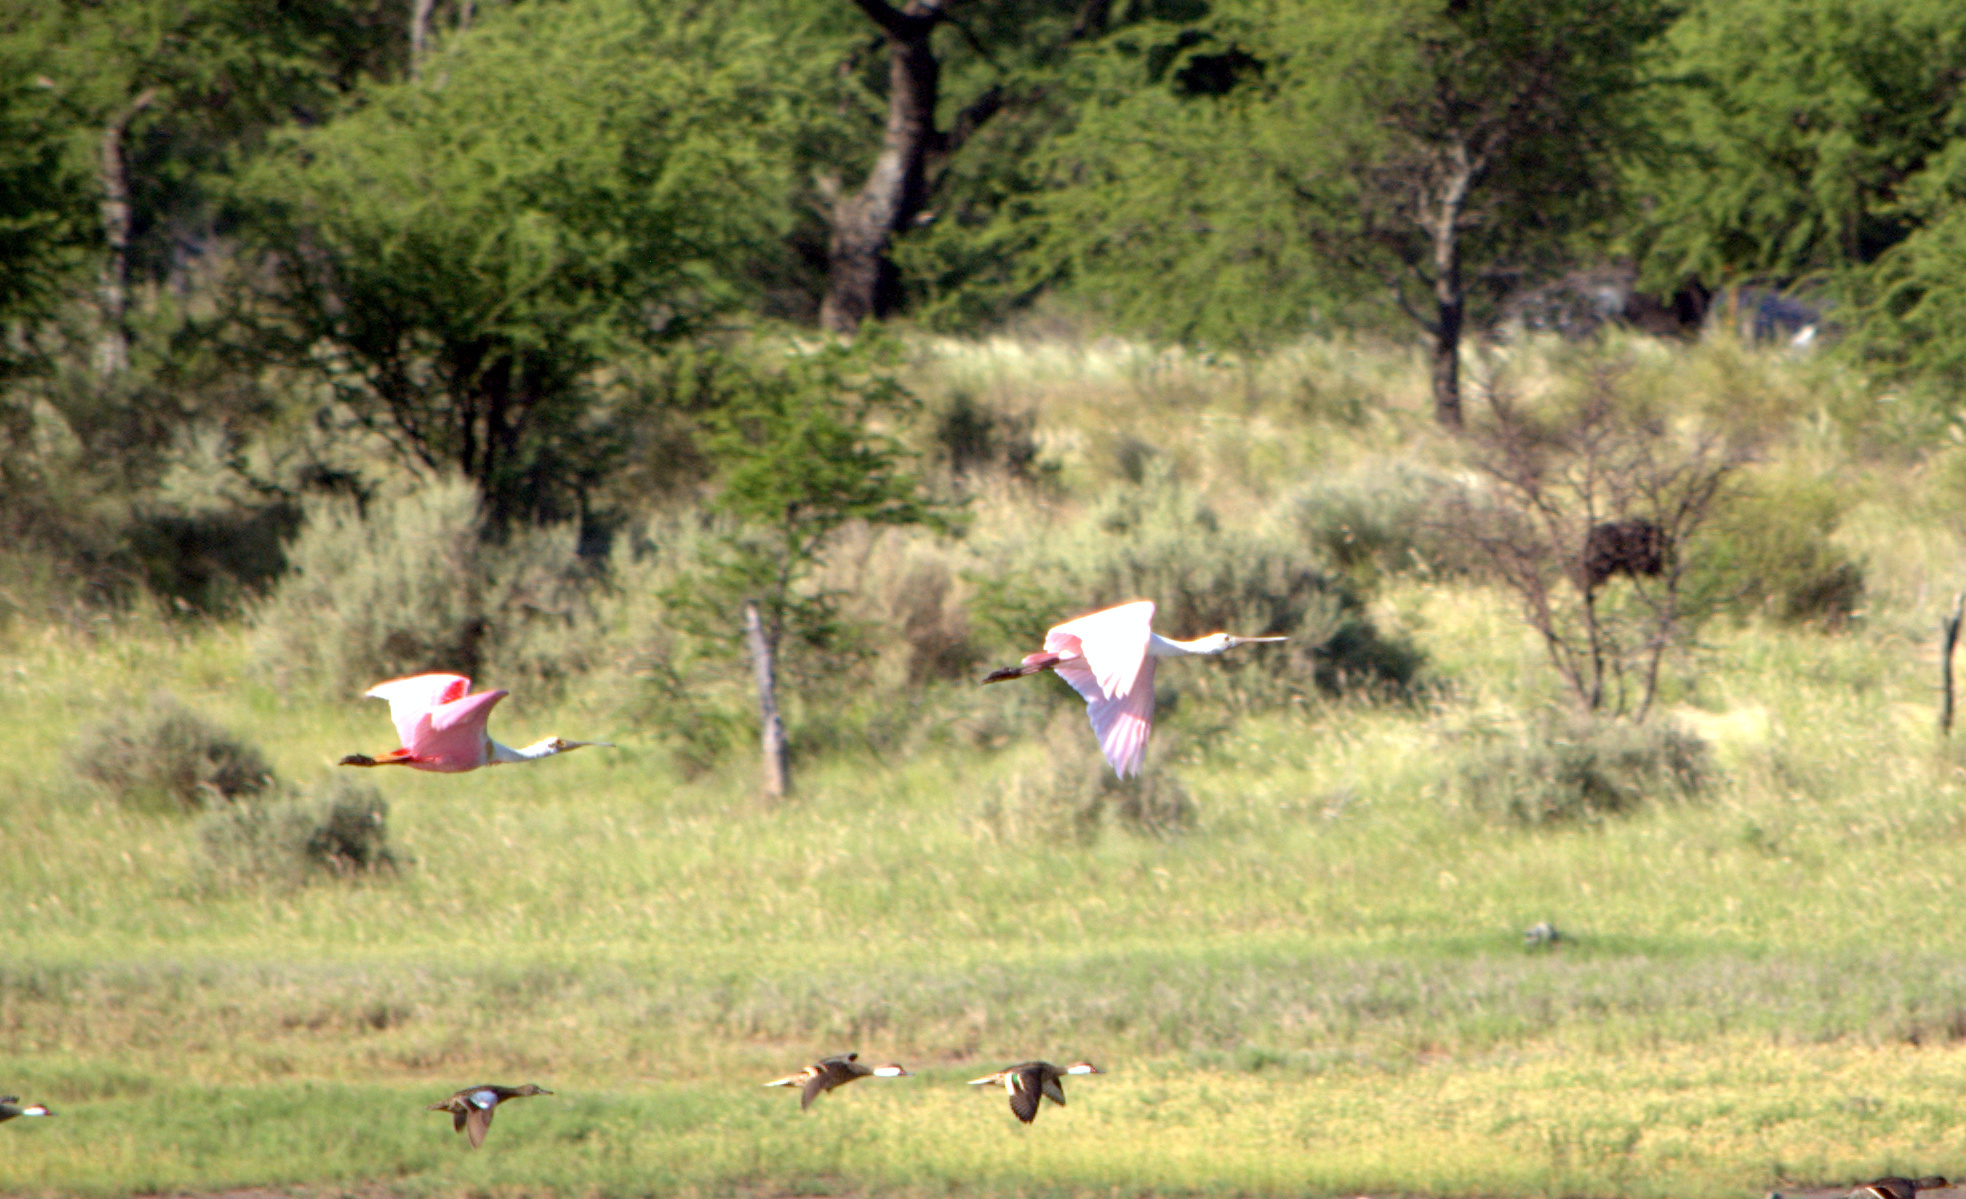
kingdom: Animalia
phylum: Chordata
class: Aves
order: Pelecaniformes
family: Threskiornithidae
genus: Platalea
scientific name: Platalea ajaja
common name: Roseate spoonbill
